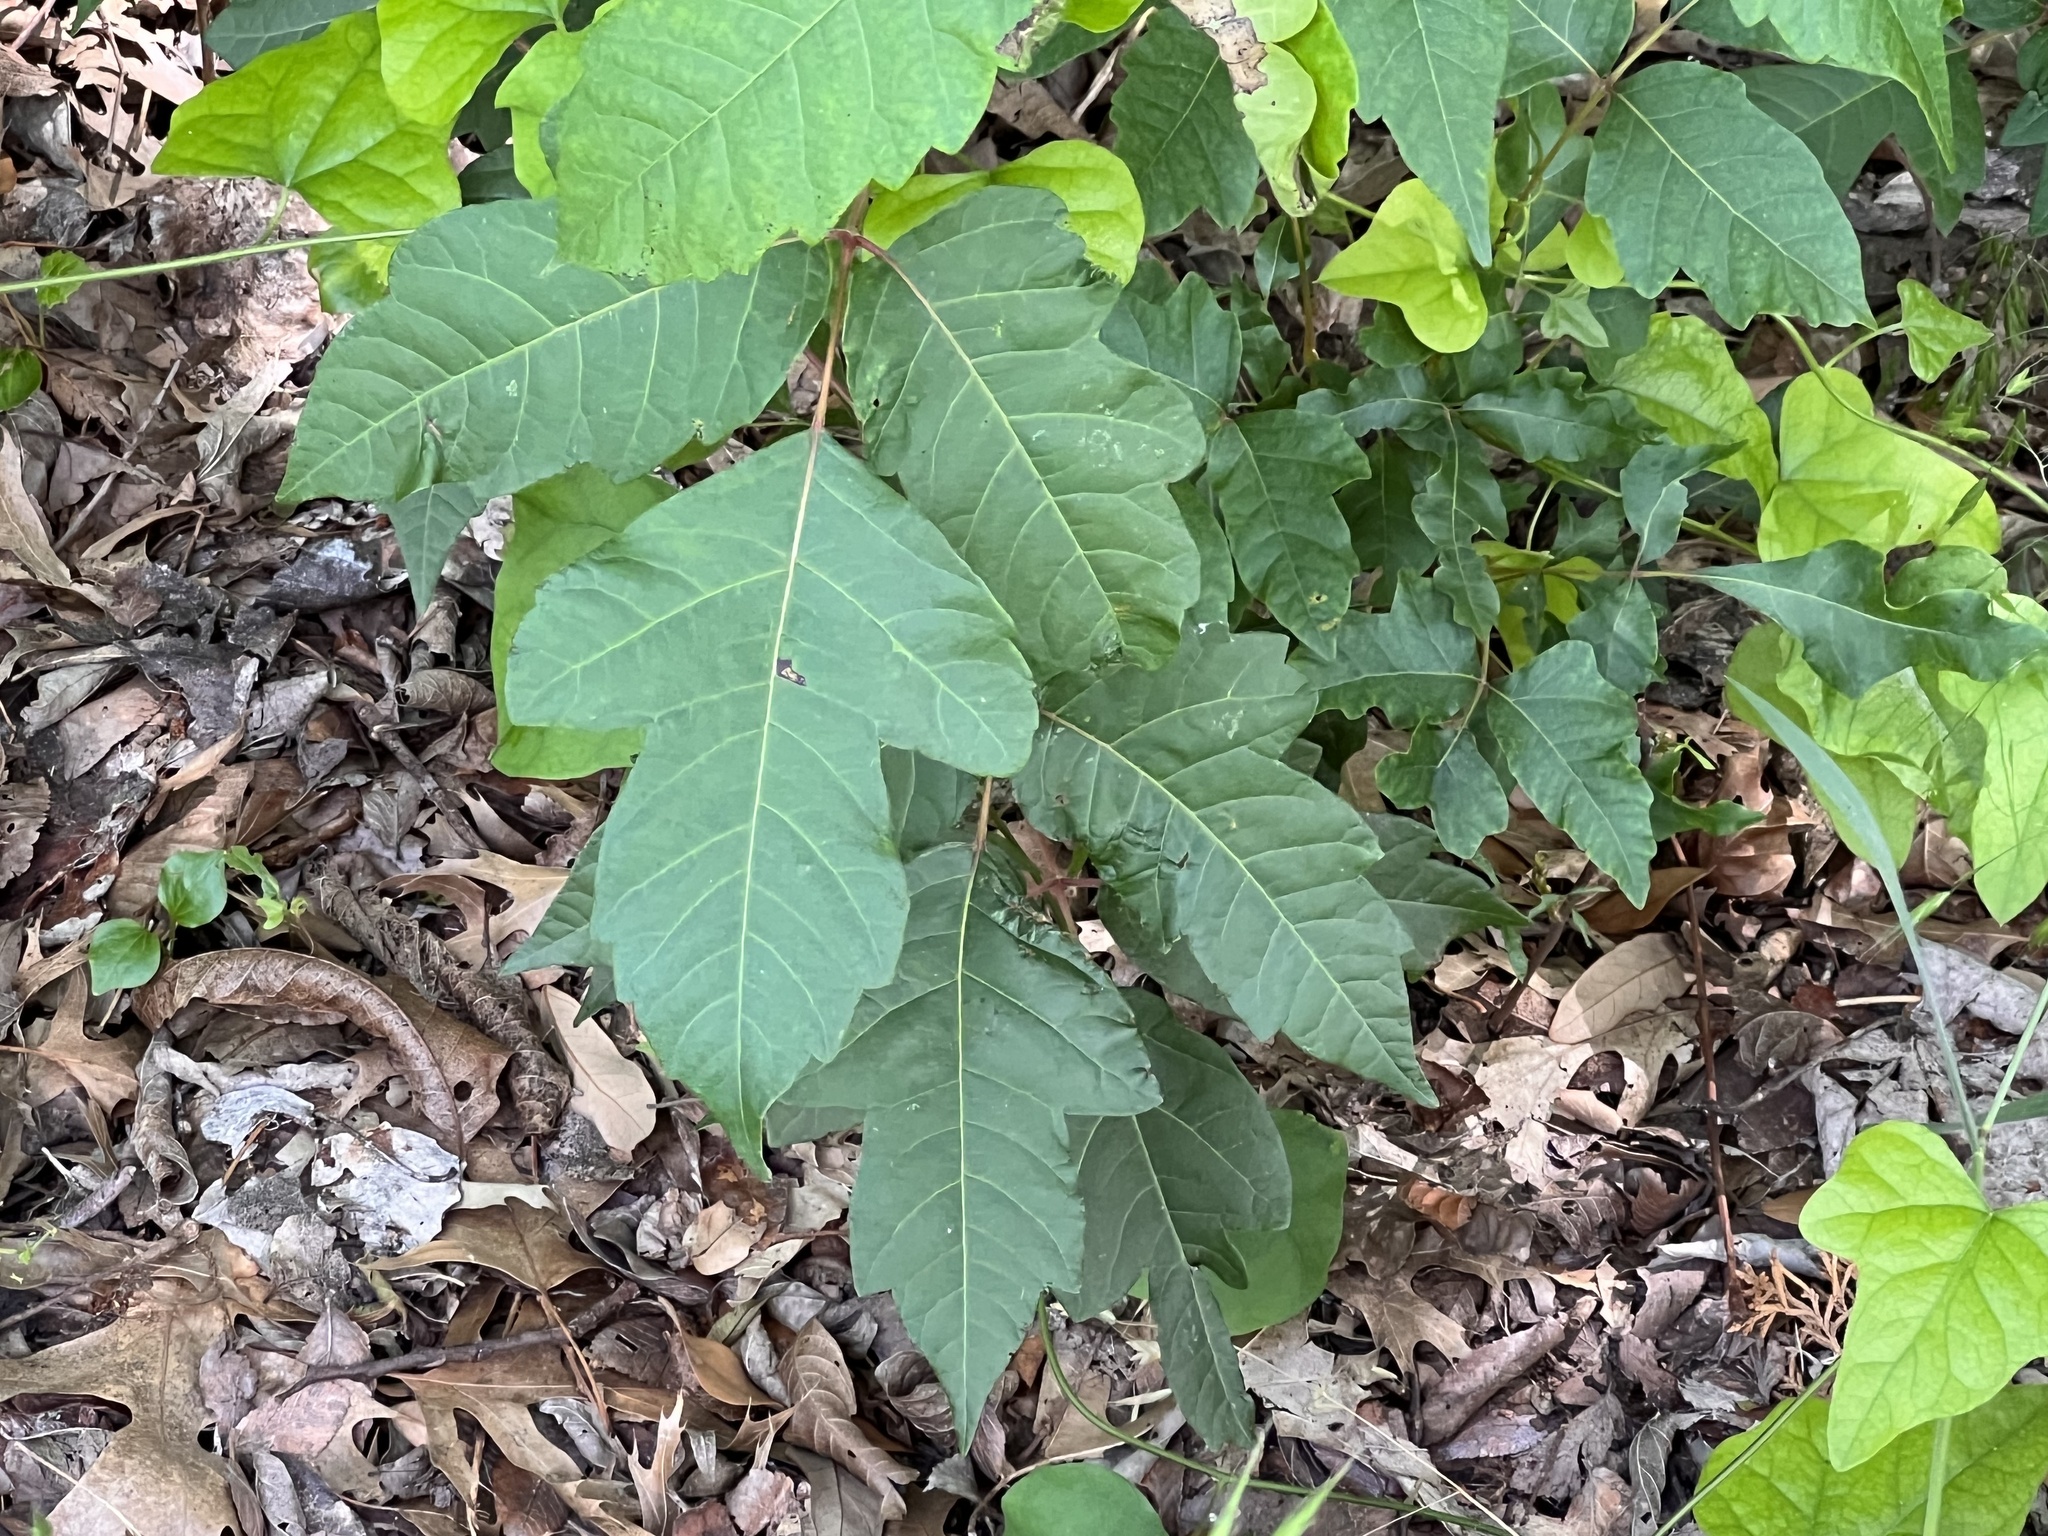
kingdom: Plantae
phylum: Tracheophyta
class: Magnoliopsida
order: Sapindales
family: Anacardiaceae
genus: Toxicodendron
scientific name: Toxicodendron radicans
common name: Poison ivy
